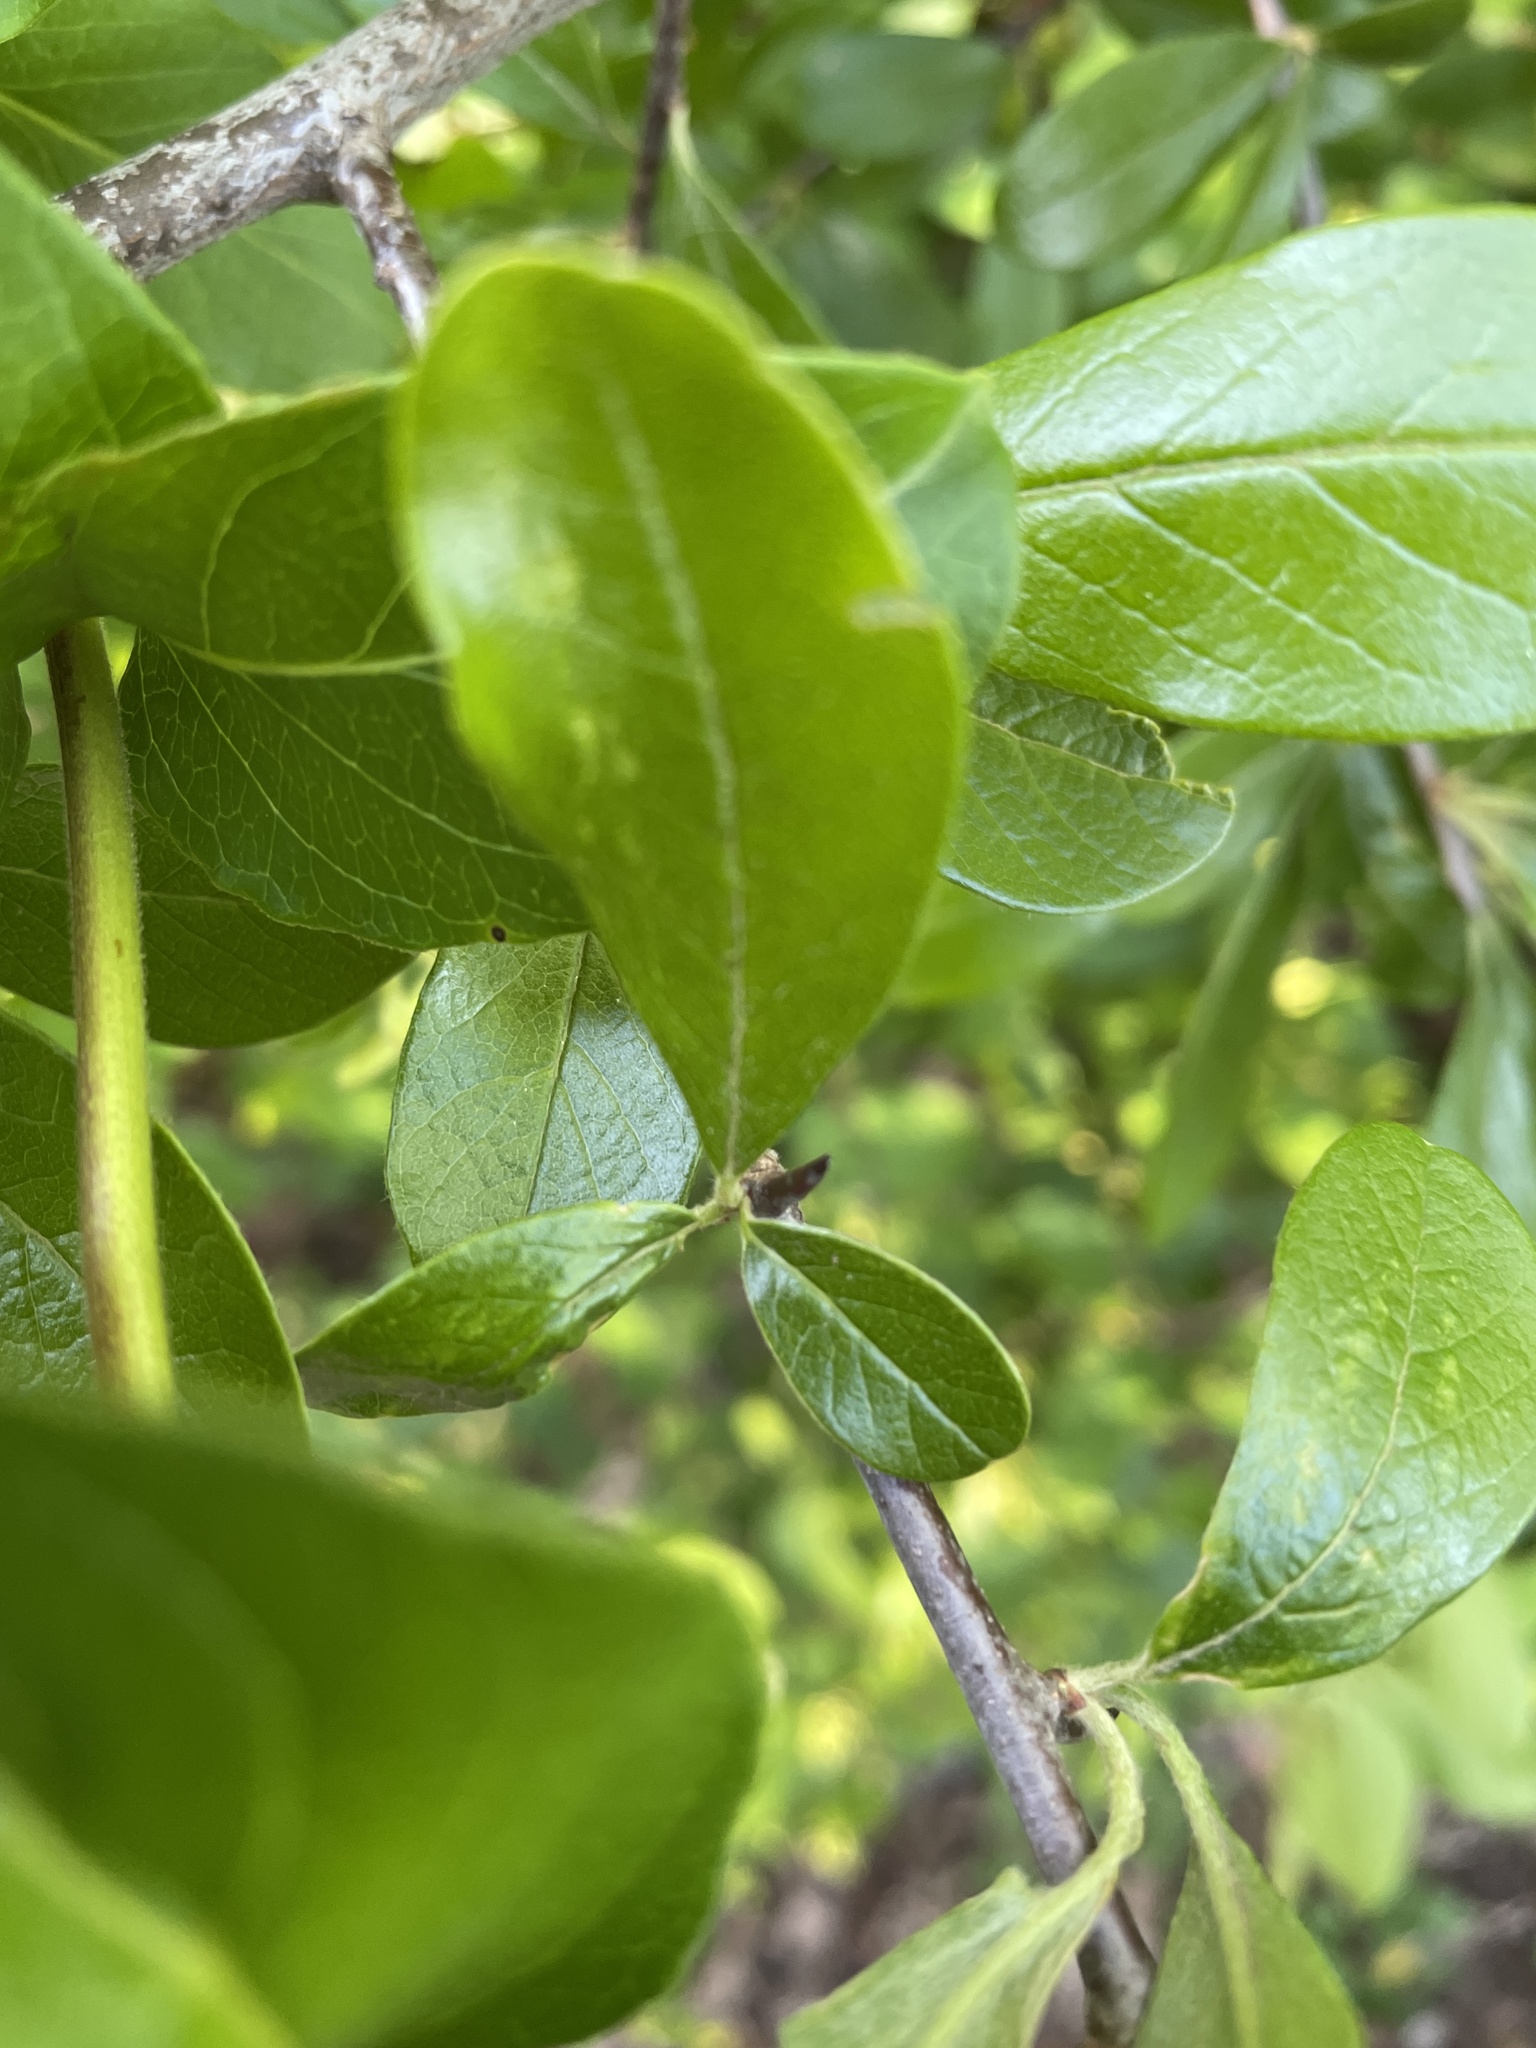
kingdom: Plantae
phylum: Tracheophyta
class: Magnoliopsida
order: Ericales
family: Sapotaceae
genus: Sideroxylon
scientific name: Sideroxylon lanuginosum
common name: Chittamwood
